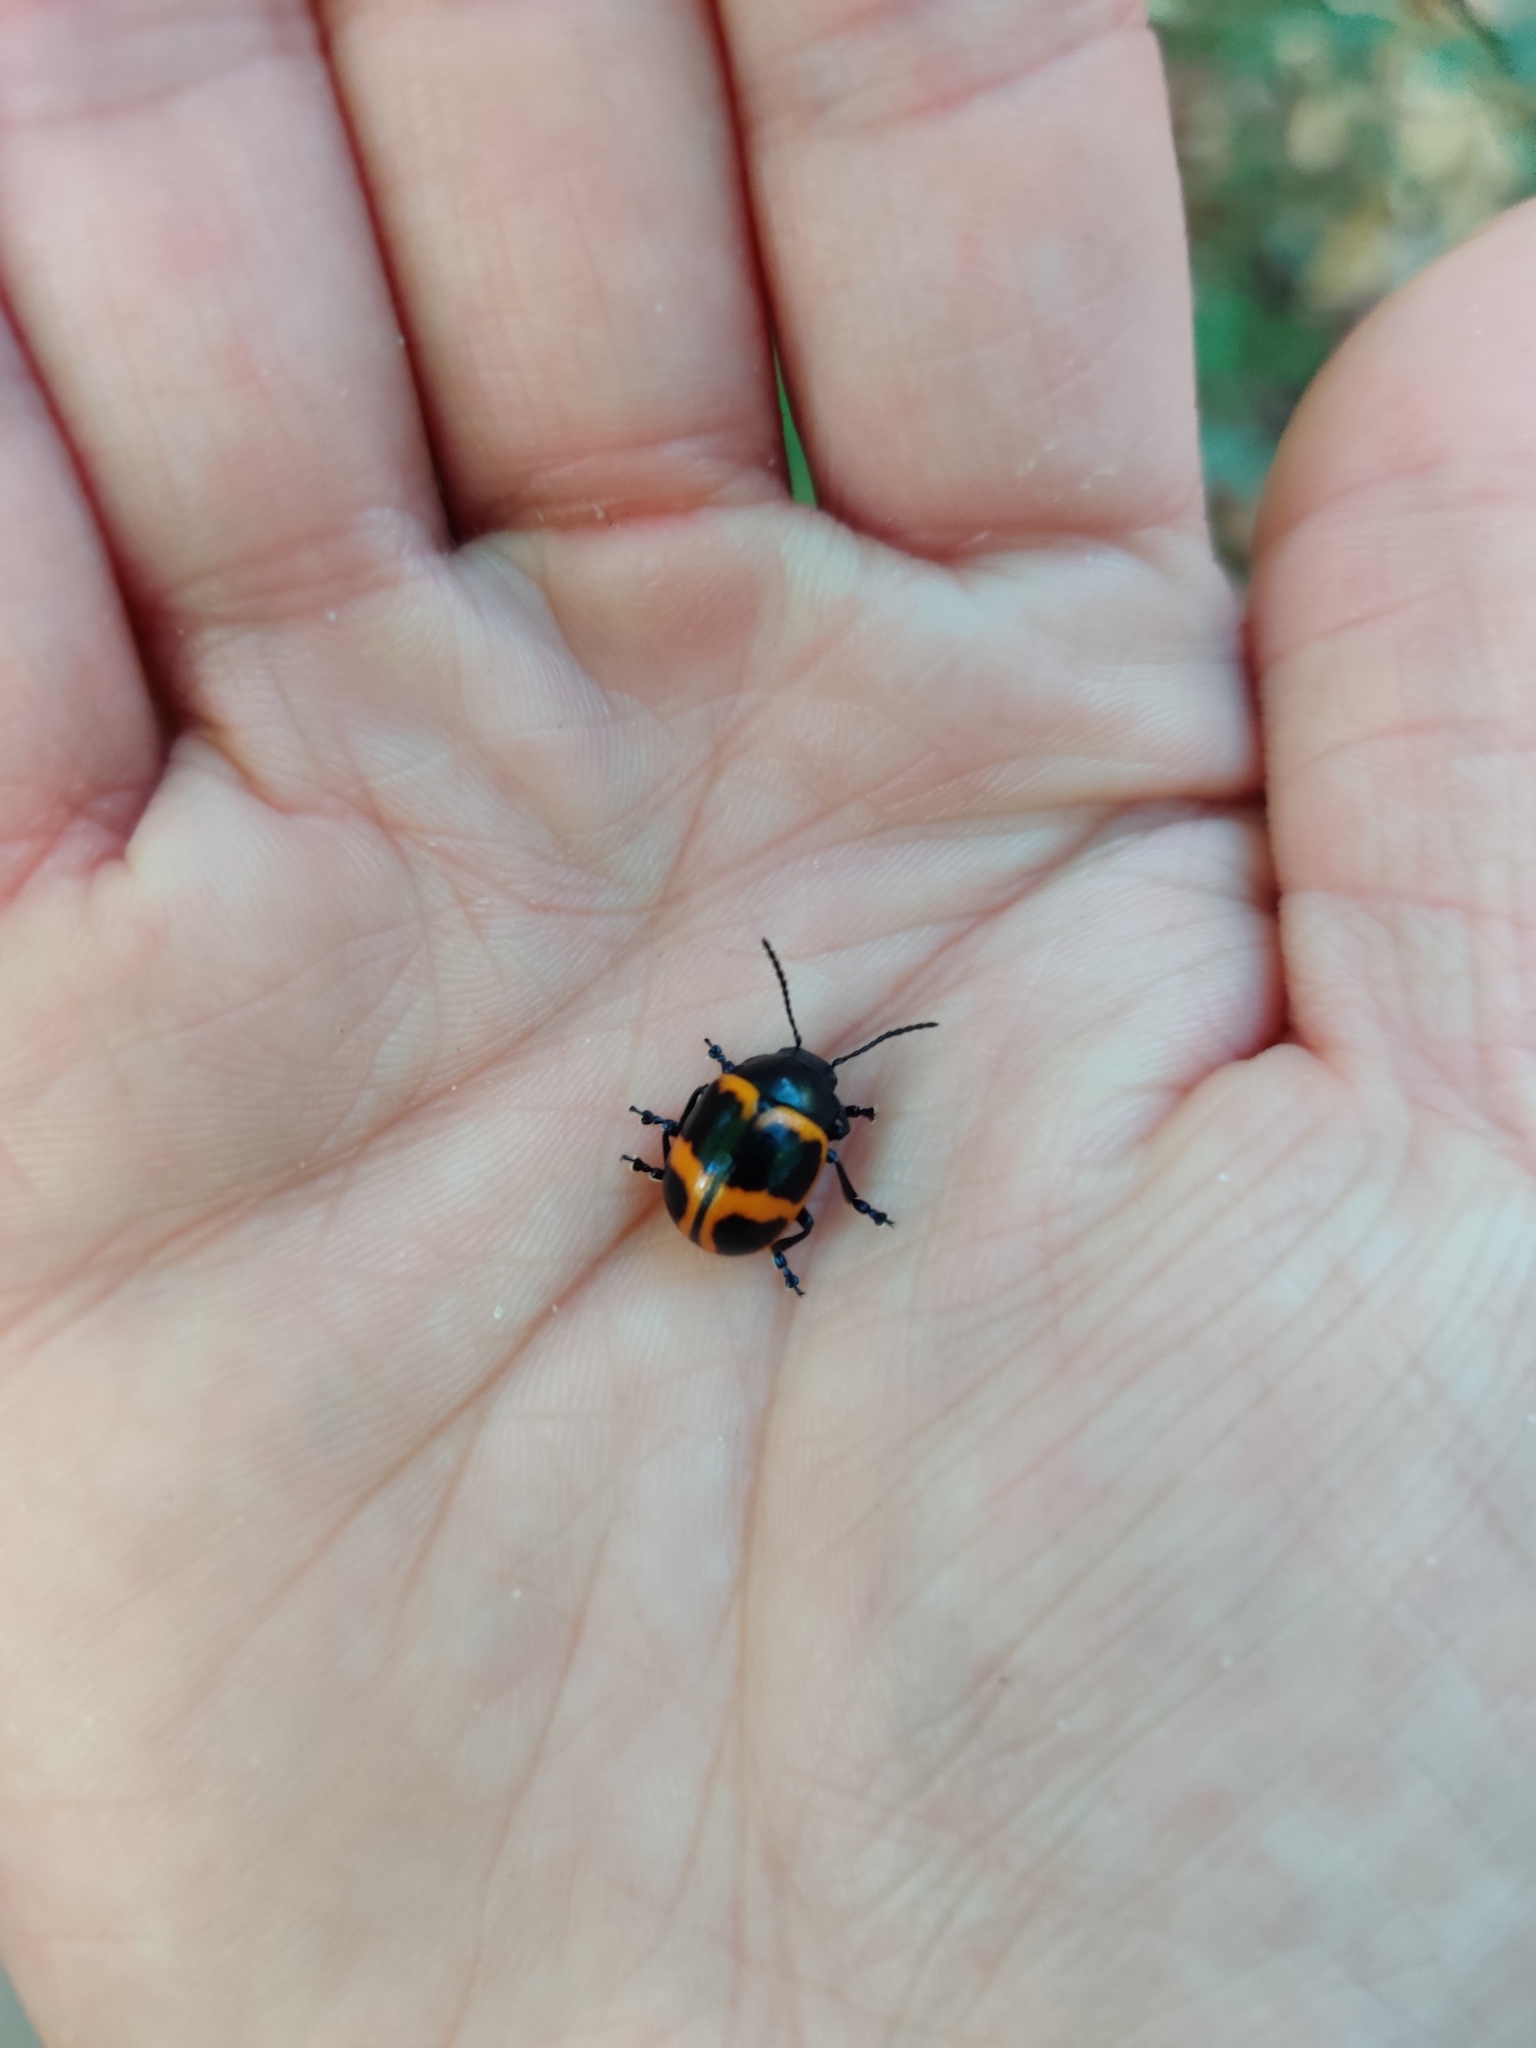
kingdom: Animalia
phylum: Arthropoda
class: Insecta
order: Coleoptera
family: Chrysomelidae
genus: Labidomera
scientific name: Labidomera clivicollis
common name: Swamp milkweed leaf beetle
